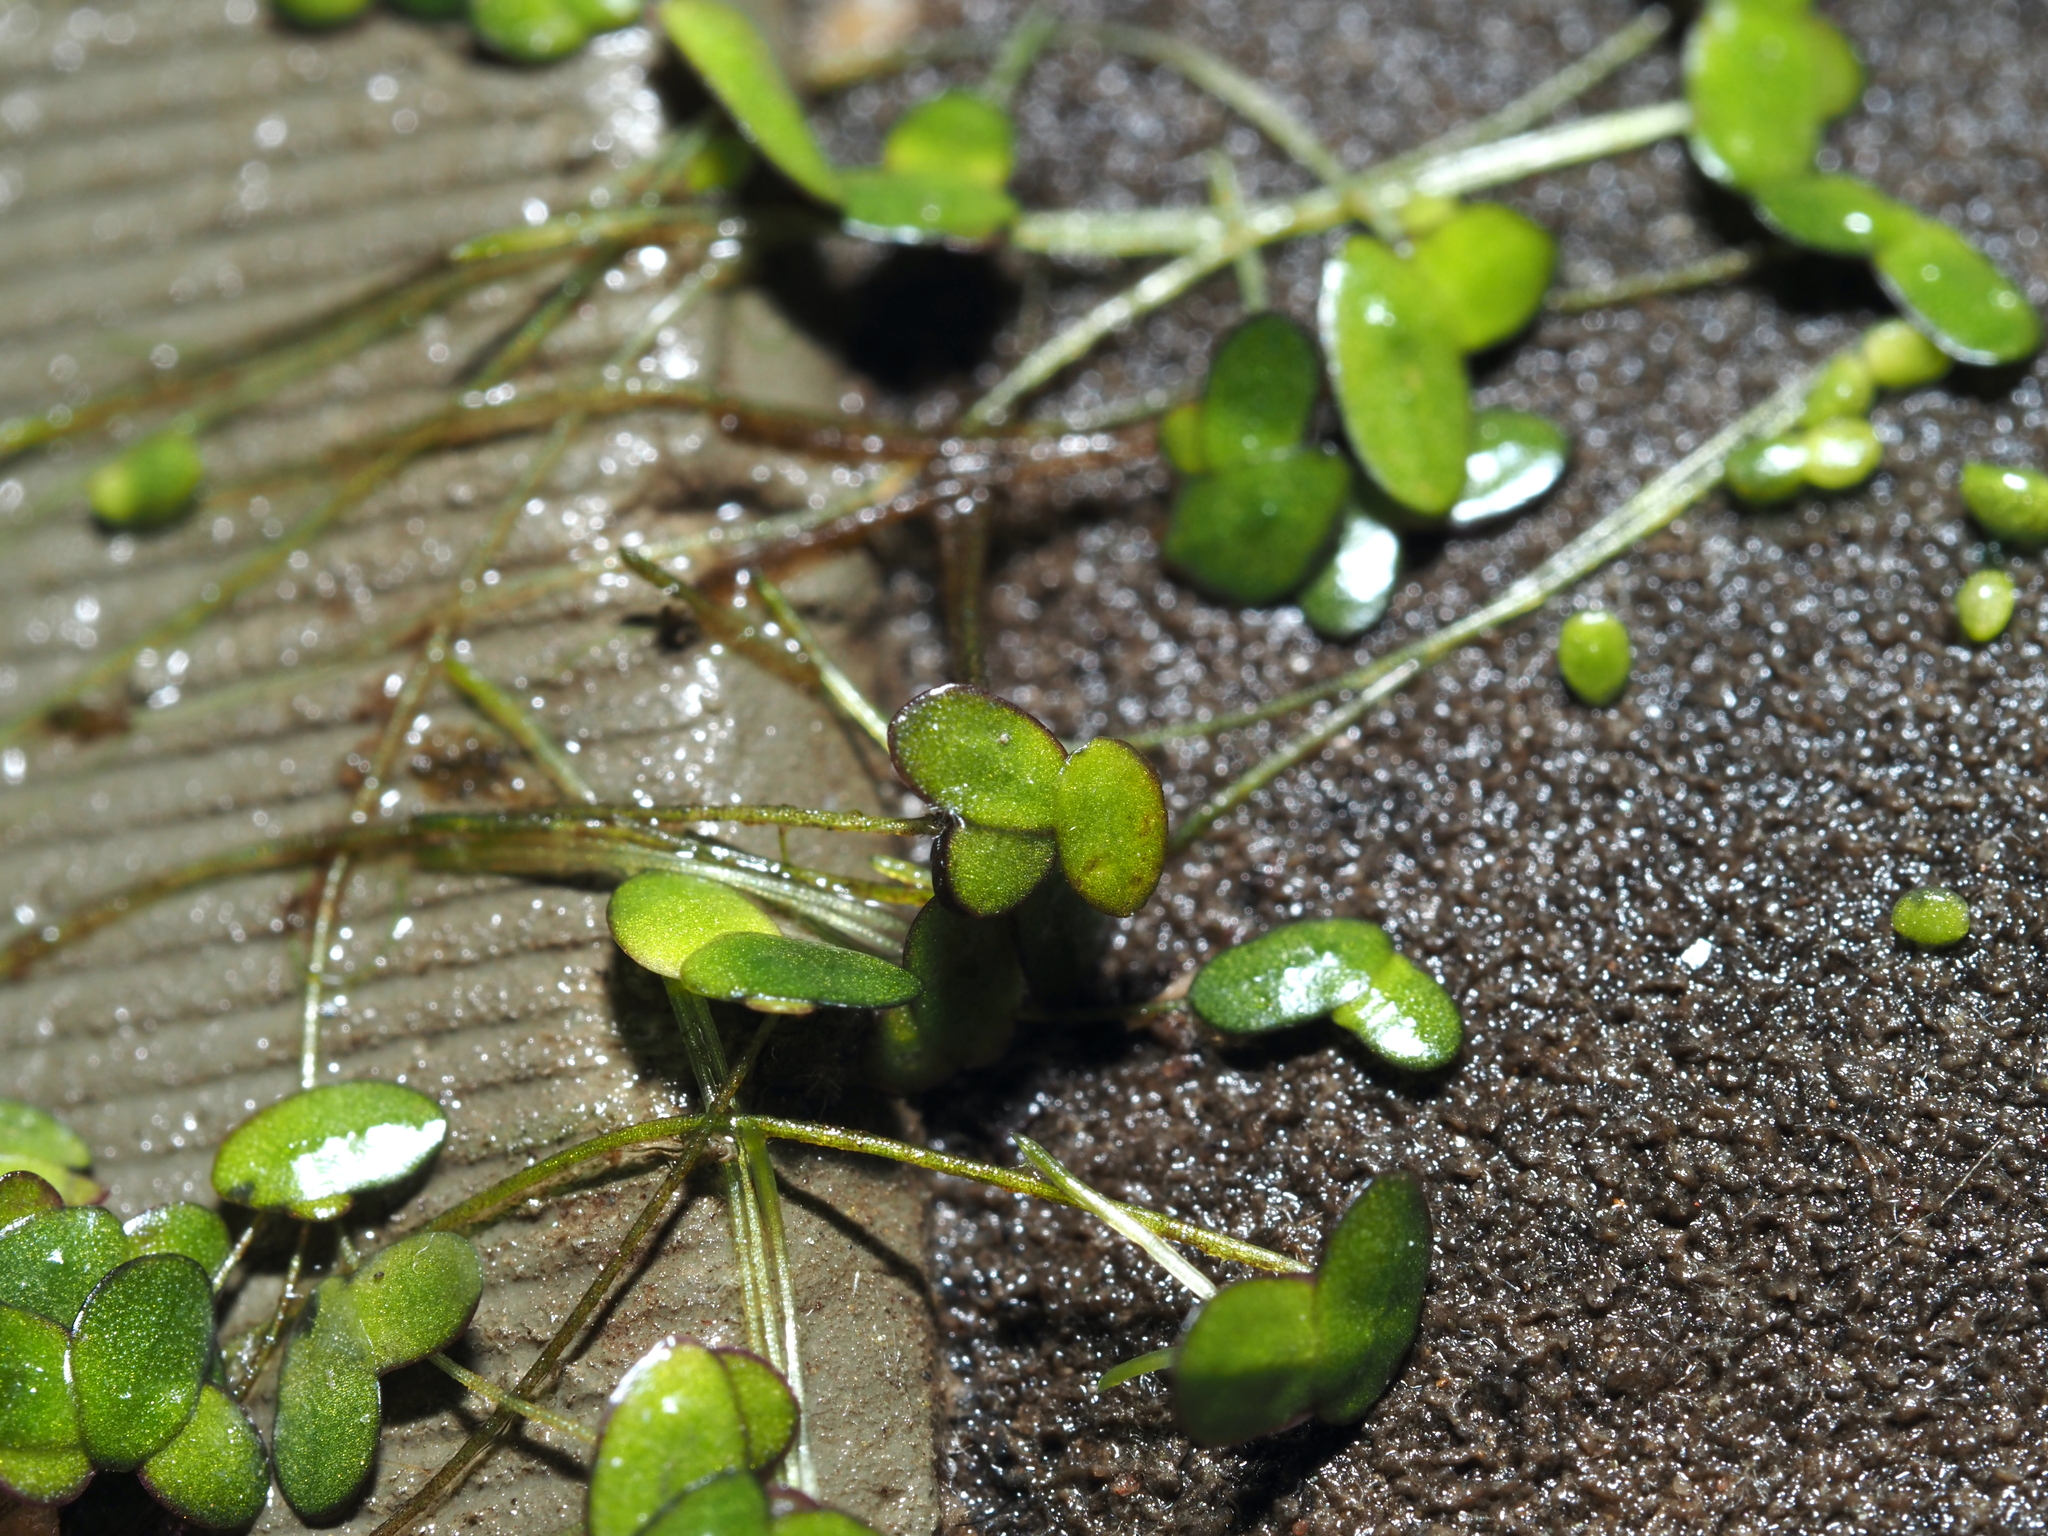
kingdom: Plantae
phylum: Tracheophyta
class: Liliopsida
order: Alismatales
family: Araceae
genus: Lemna
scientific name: Lemna minor
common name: Common duckweed
